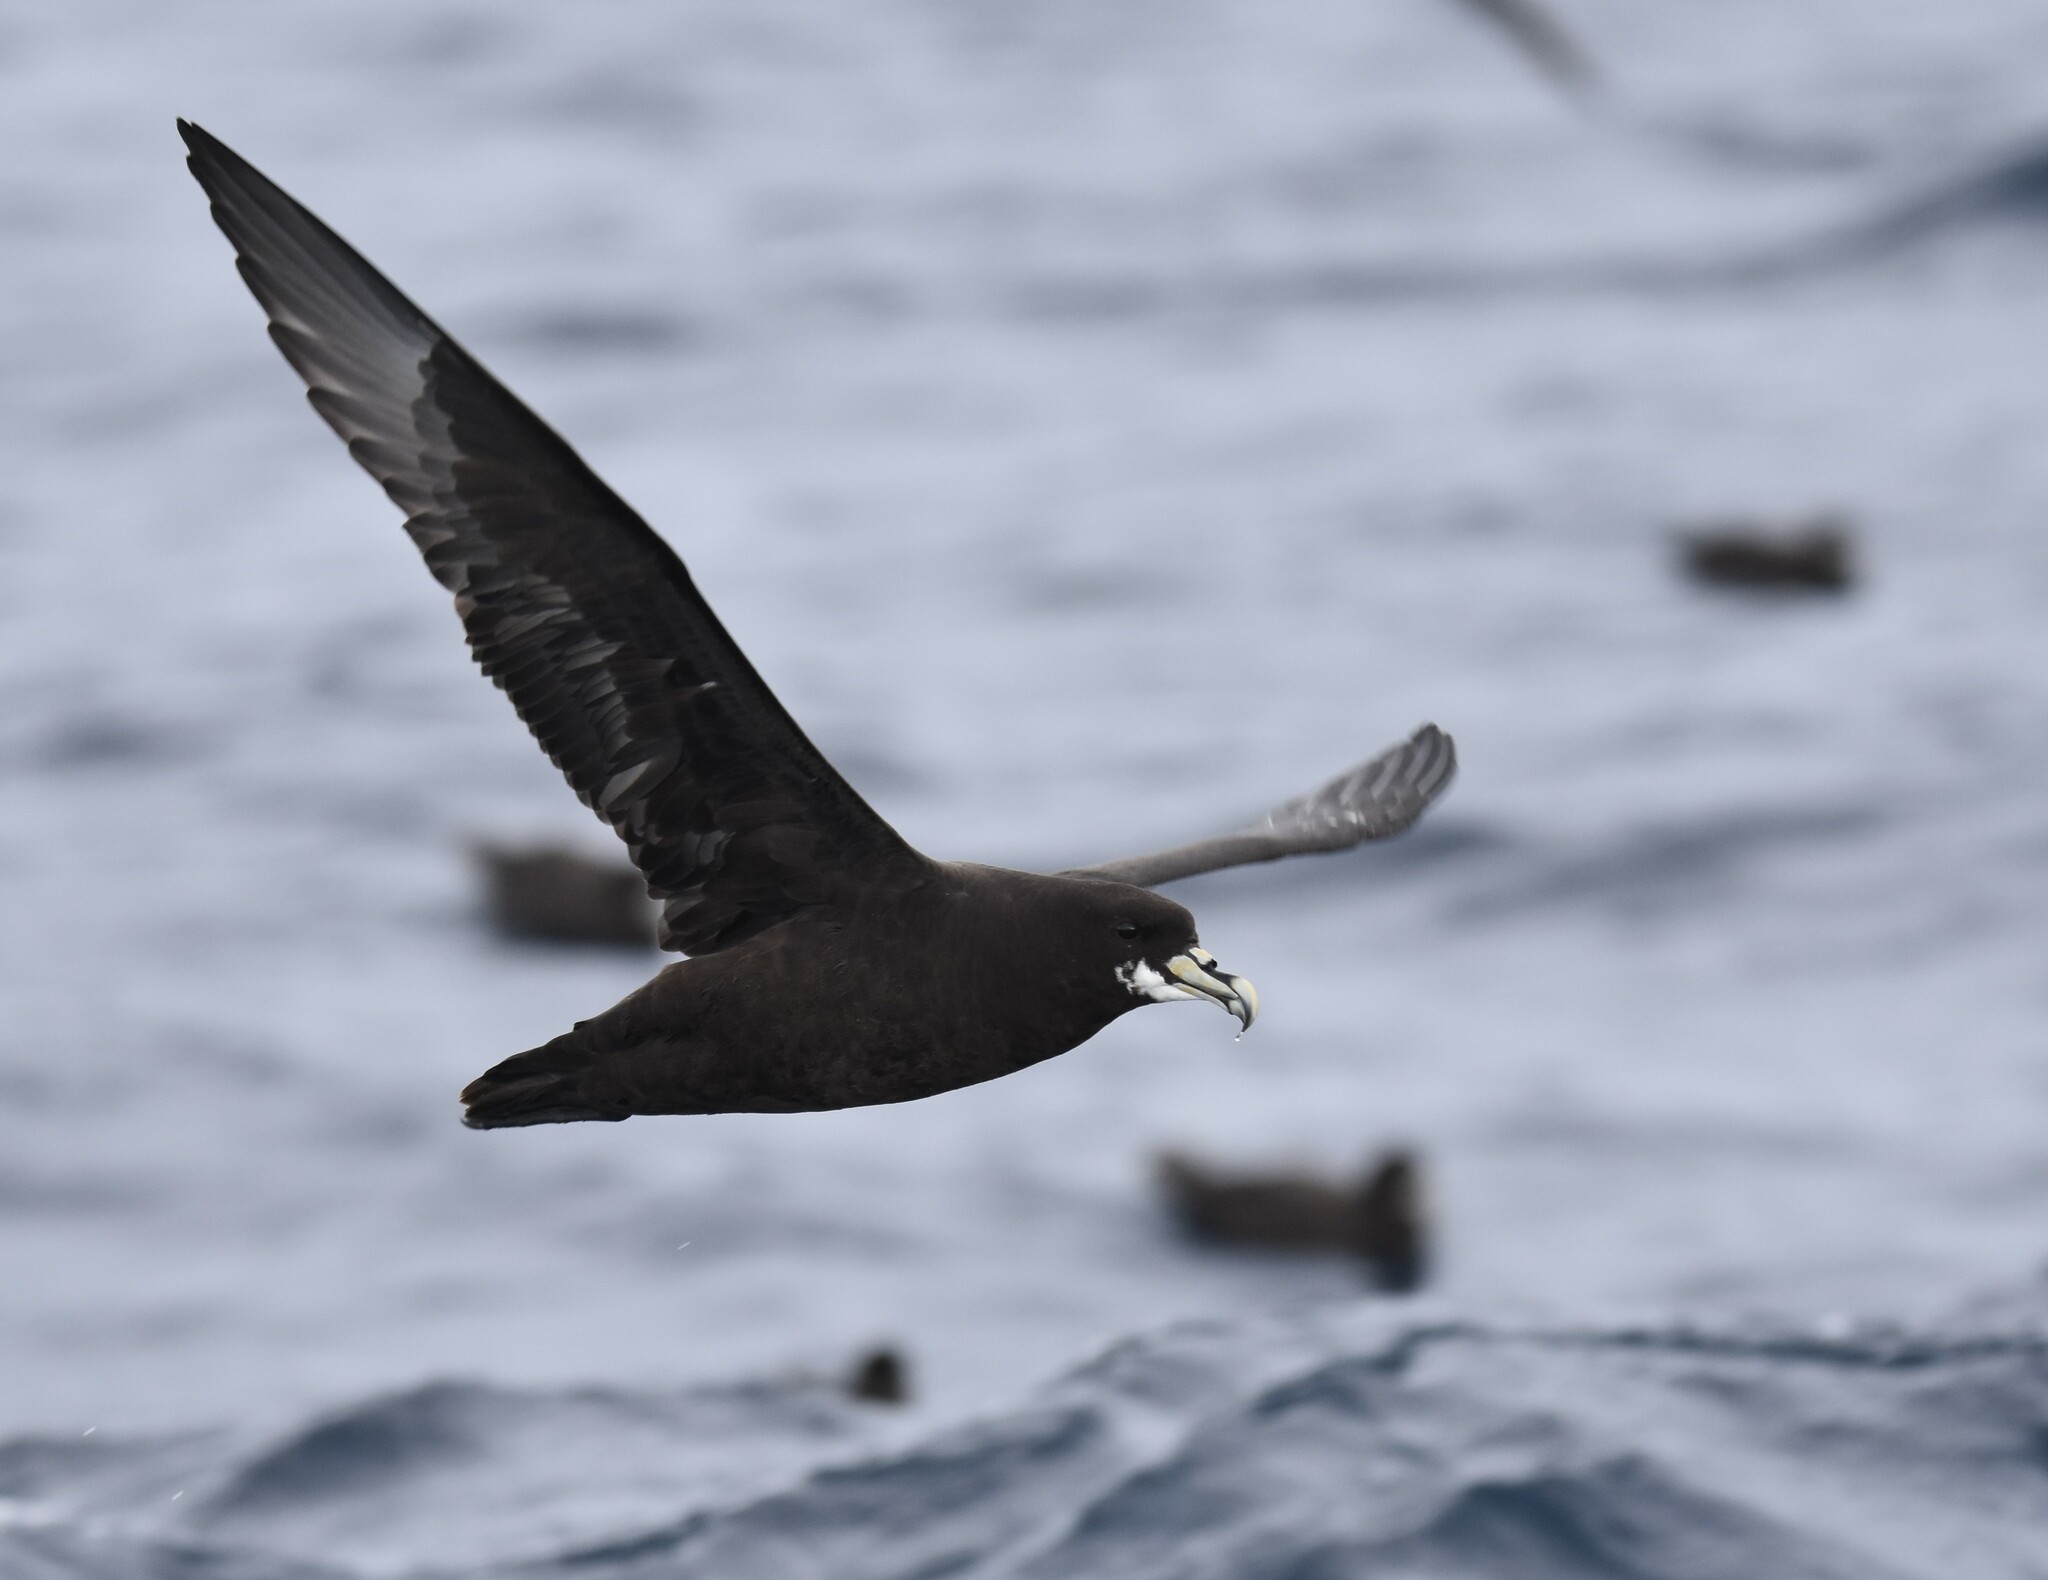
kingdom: Animalia
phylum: Chordata
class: Aves
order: Procellariiformes
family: Procellariidae
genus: Procellaria
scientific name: Procellaria aequinoctialis
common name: White-chinned petrel
